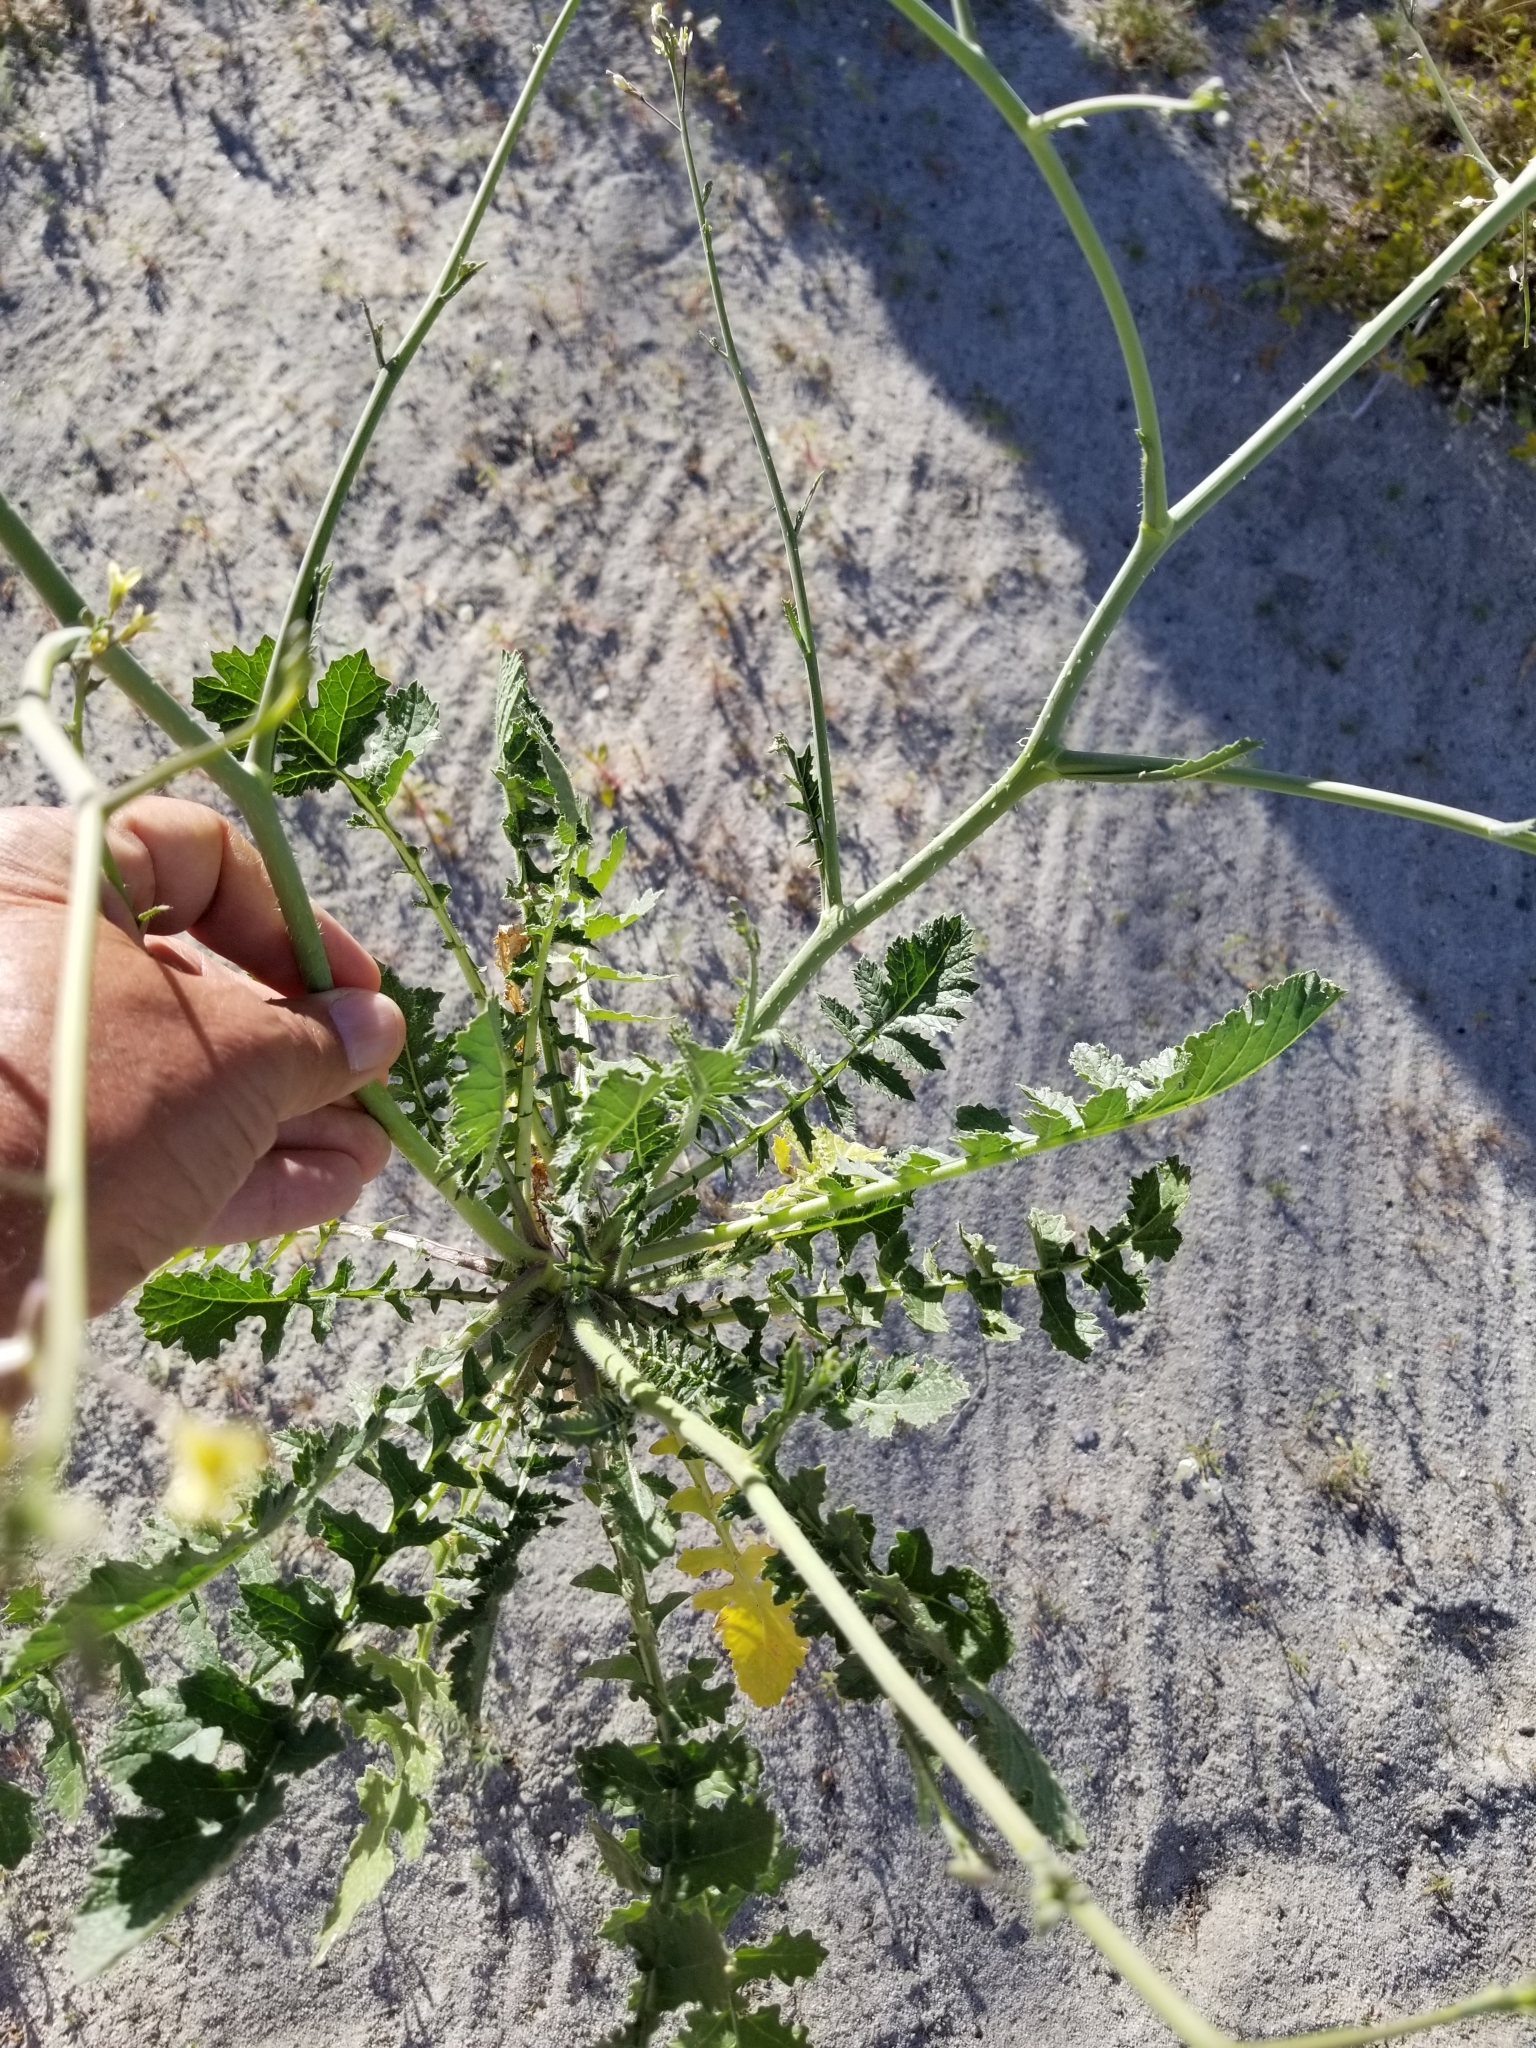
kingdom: Plantae
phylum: Tracheophyta
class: Magnoliopsida
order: Brassicales
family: Brassicaceae
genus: Brassica
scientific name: Brassica tournefortii
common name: Pale cabbage
